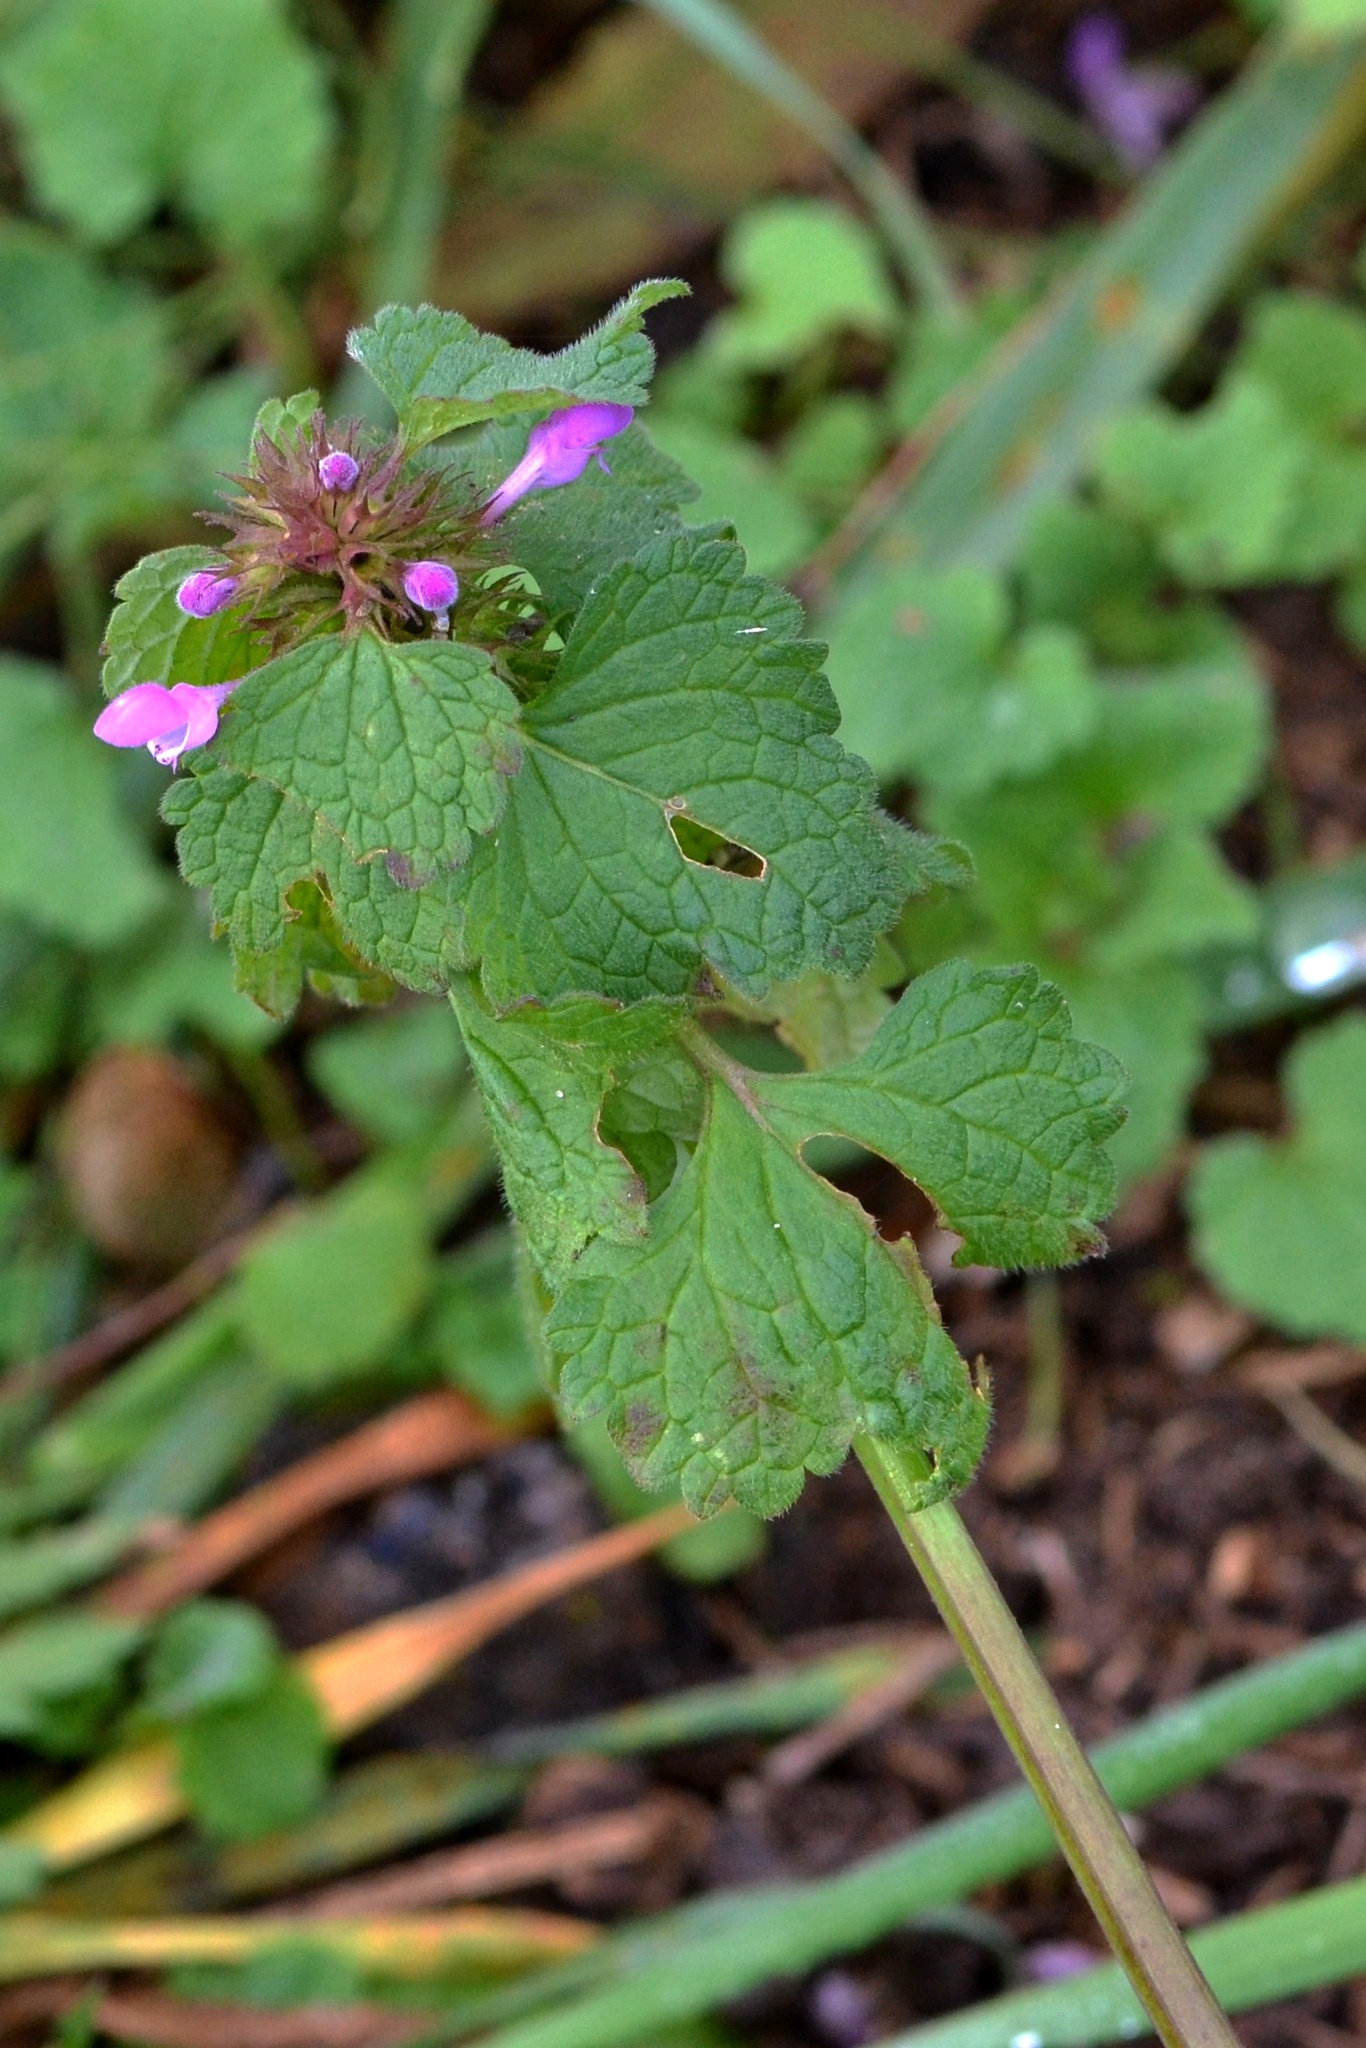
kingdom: Plantae
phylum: Tracheophyta
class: Magnoliopsida
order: Lamiales
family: Lamiaceae
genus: Lamium
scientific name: Lamium purpureum
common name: Red dead-nettle
